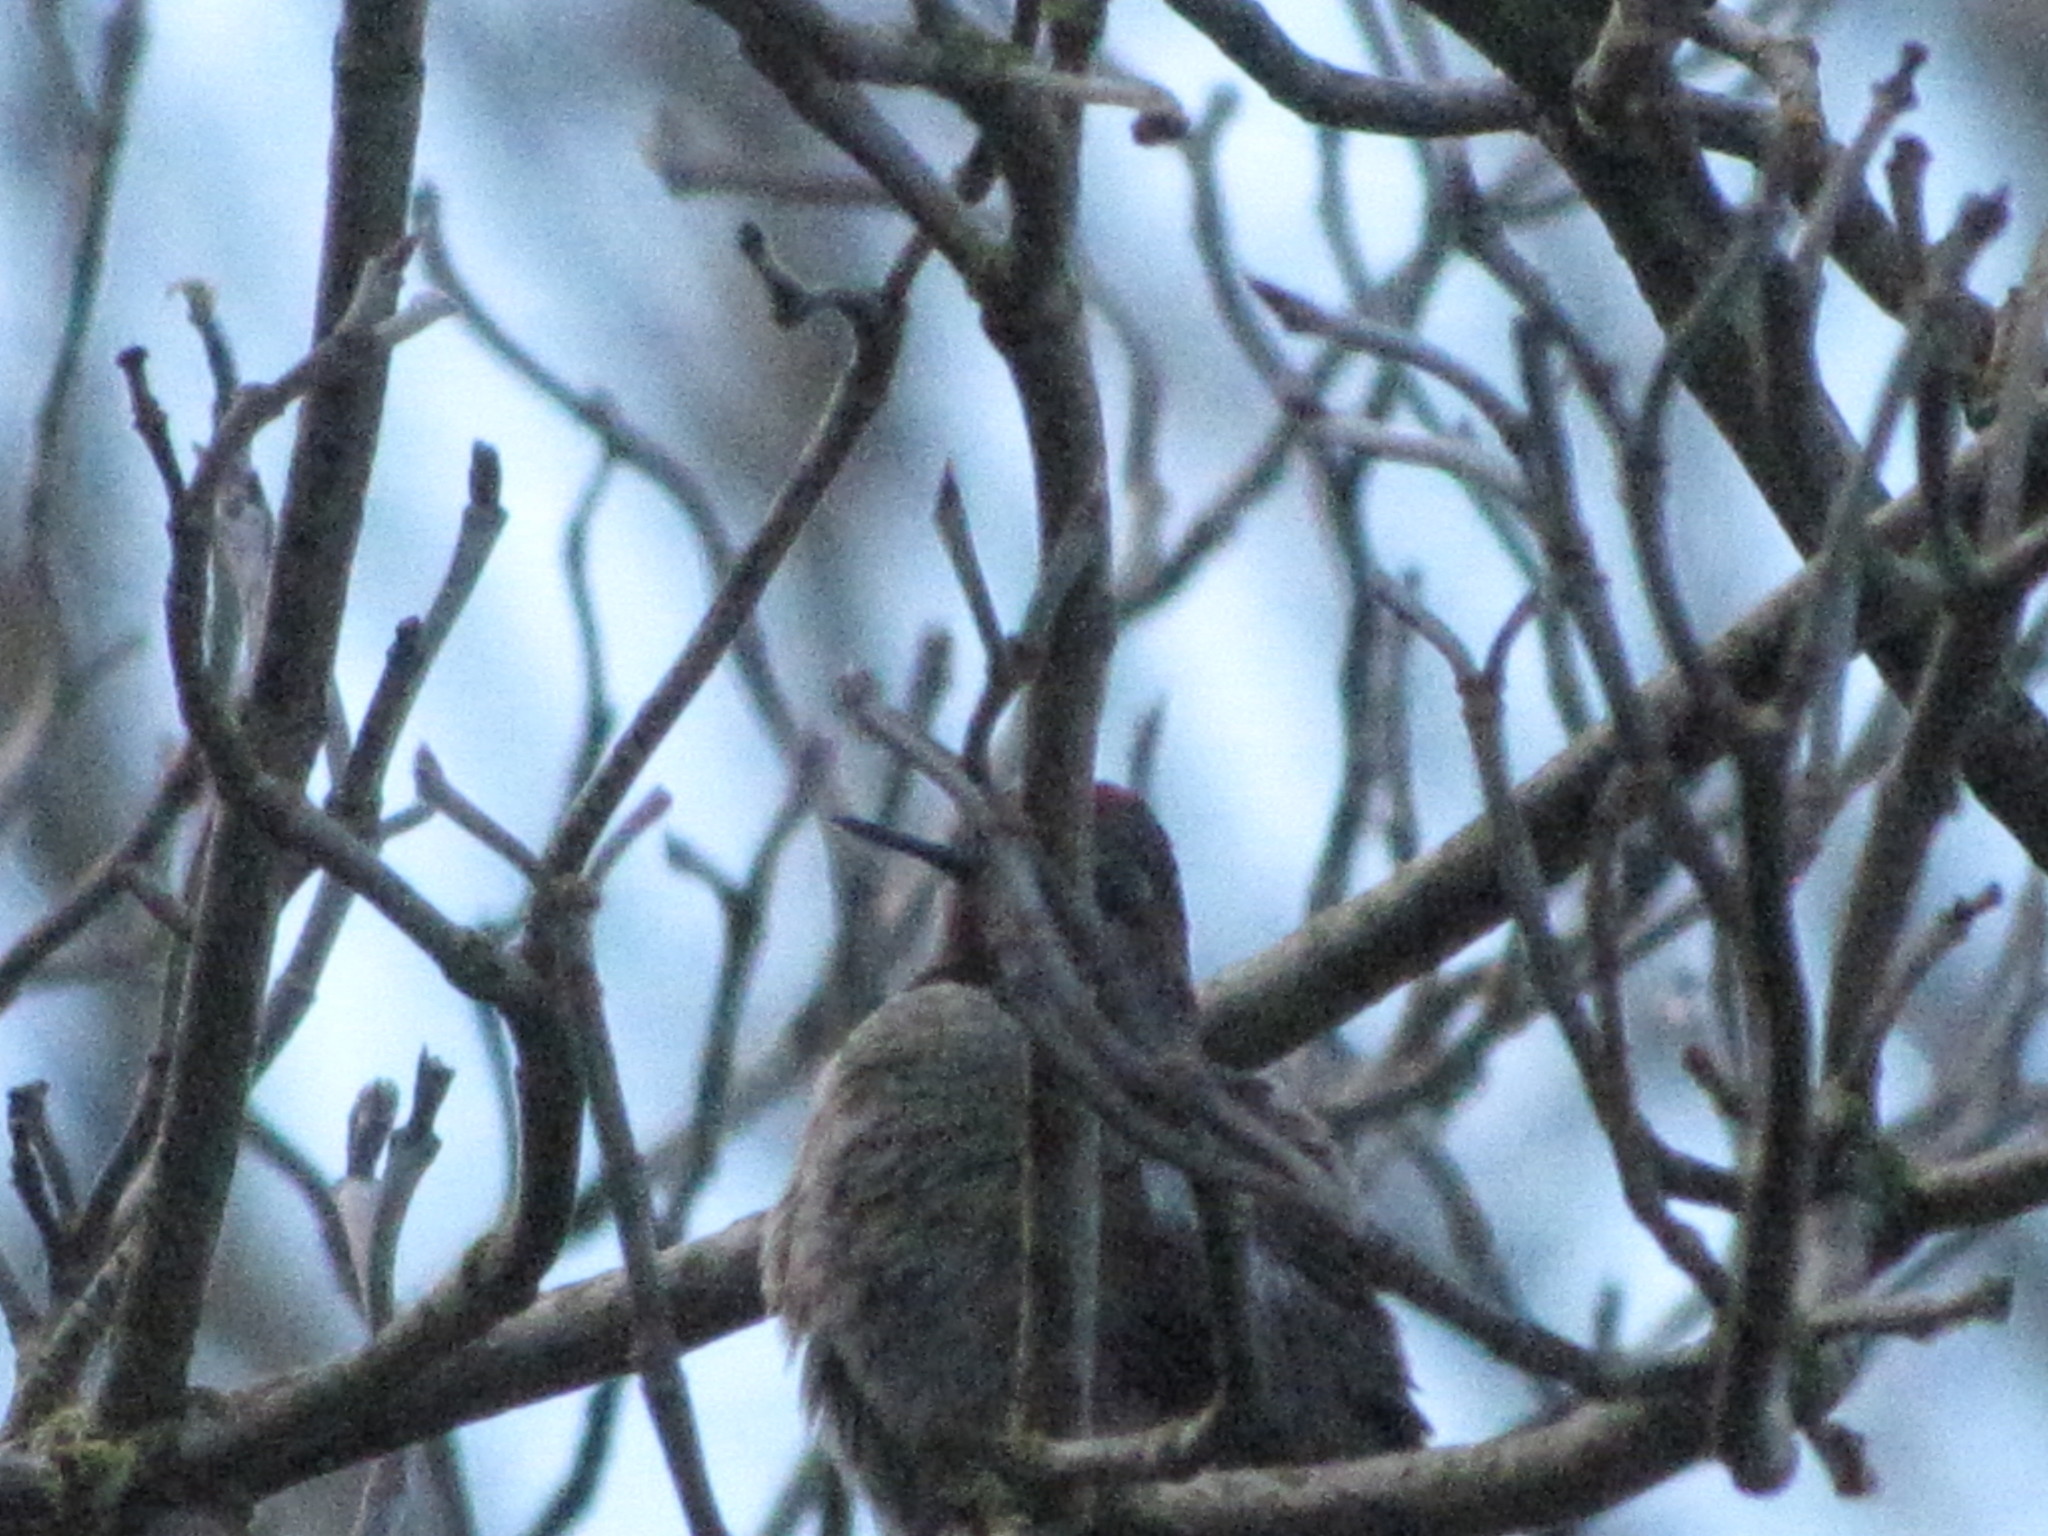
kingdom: Animalia
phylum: Chordata
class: Aves
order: Apodiformes
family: Trochilidae
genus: Calypte
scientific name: Calypte anna
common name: Anna's hummingbird
